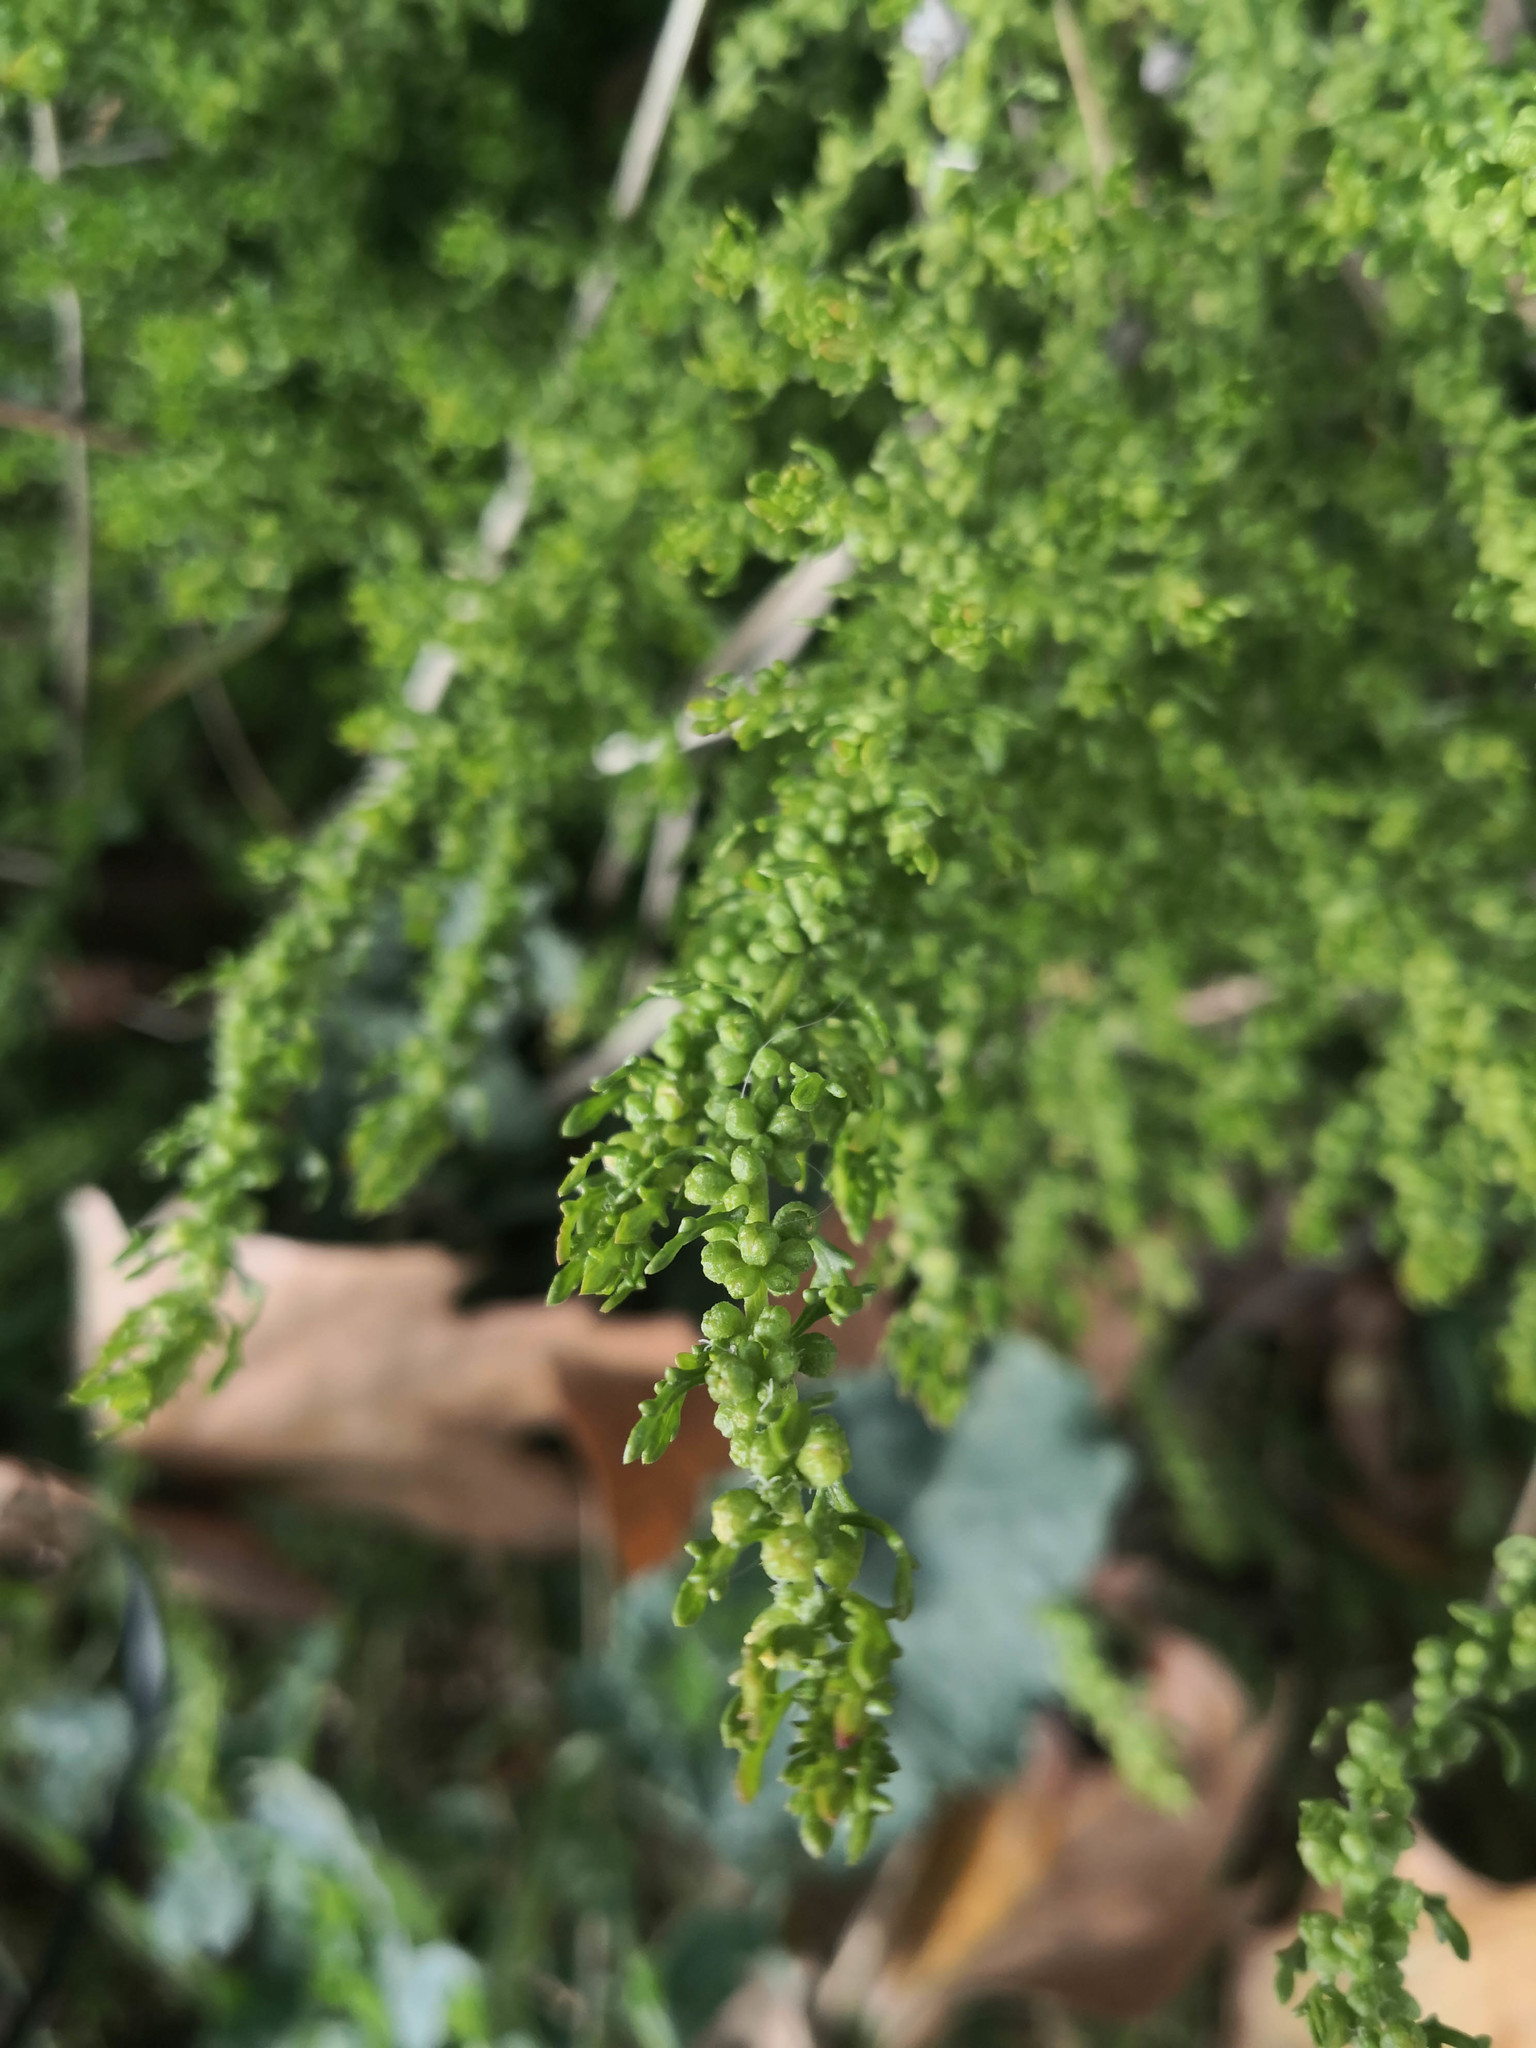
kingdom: Plantae
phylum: Tracheophyta
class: Magnoliopsida
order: Caryophyllales
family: Amaranthaceae
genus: Dysphania
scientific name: Dysphania multifida
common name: Cutleaf goosefoot
